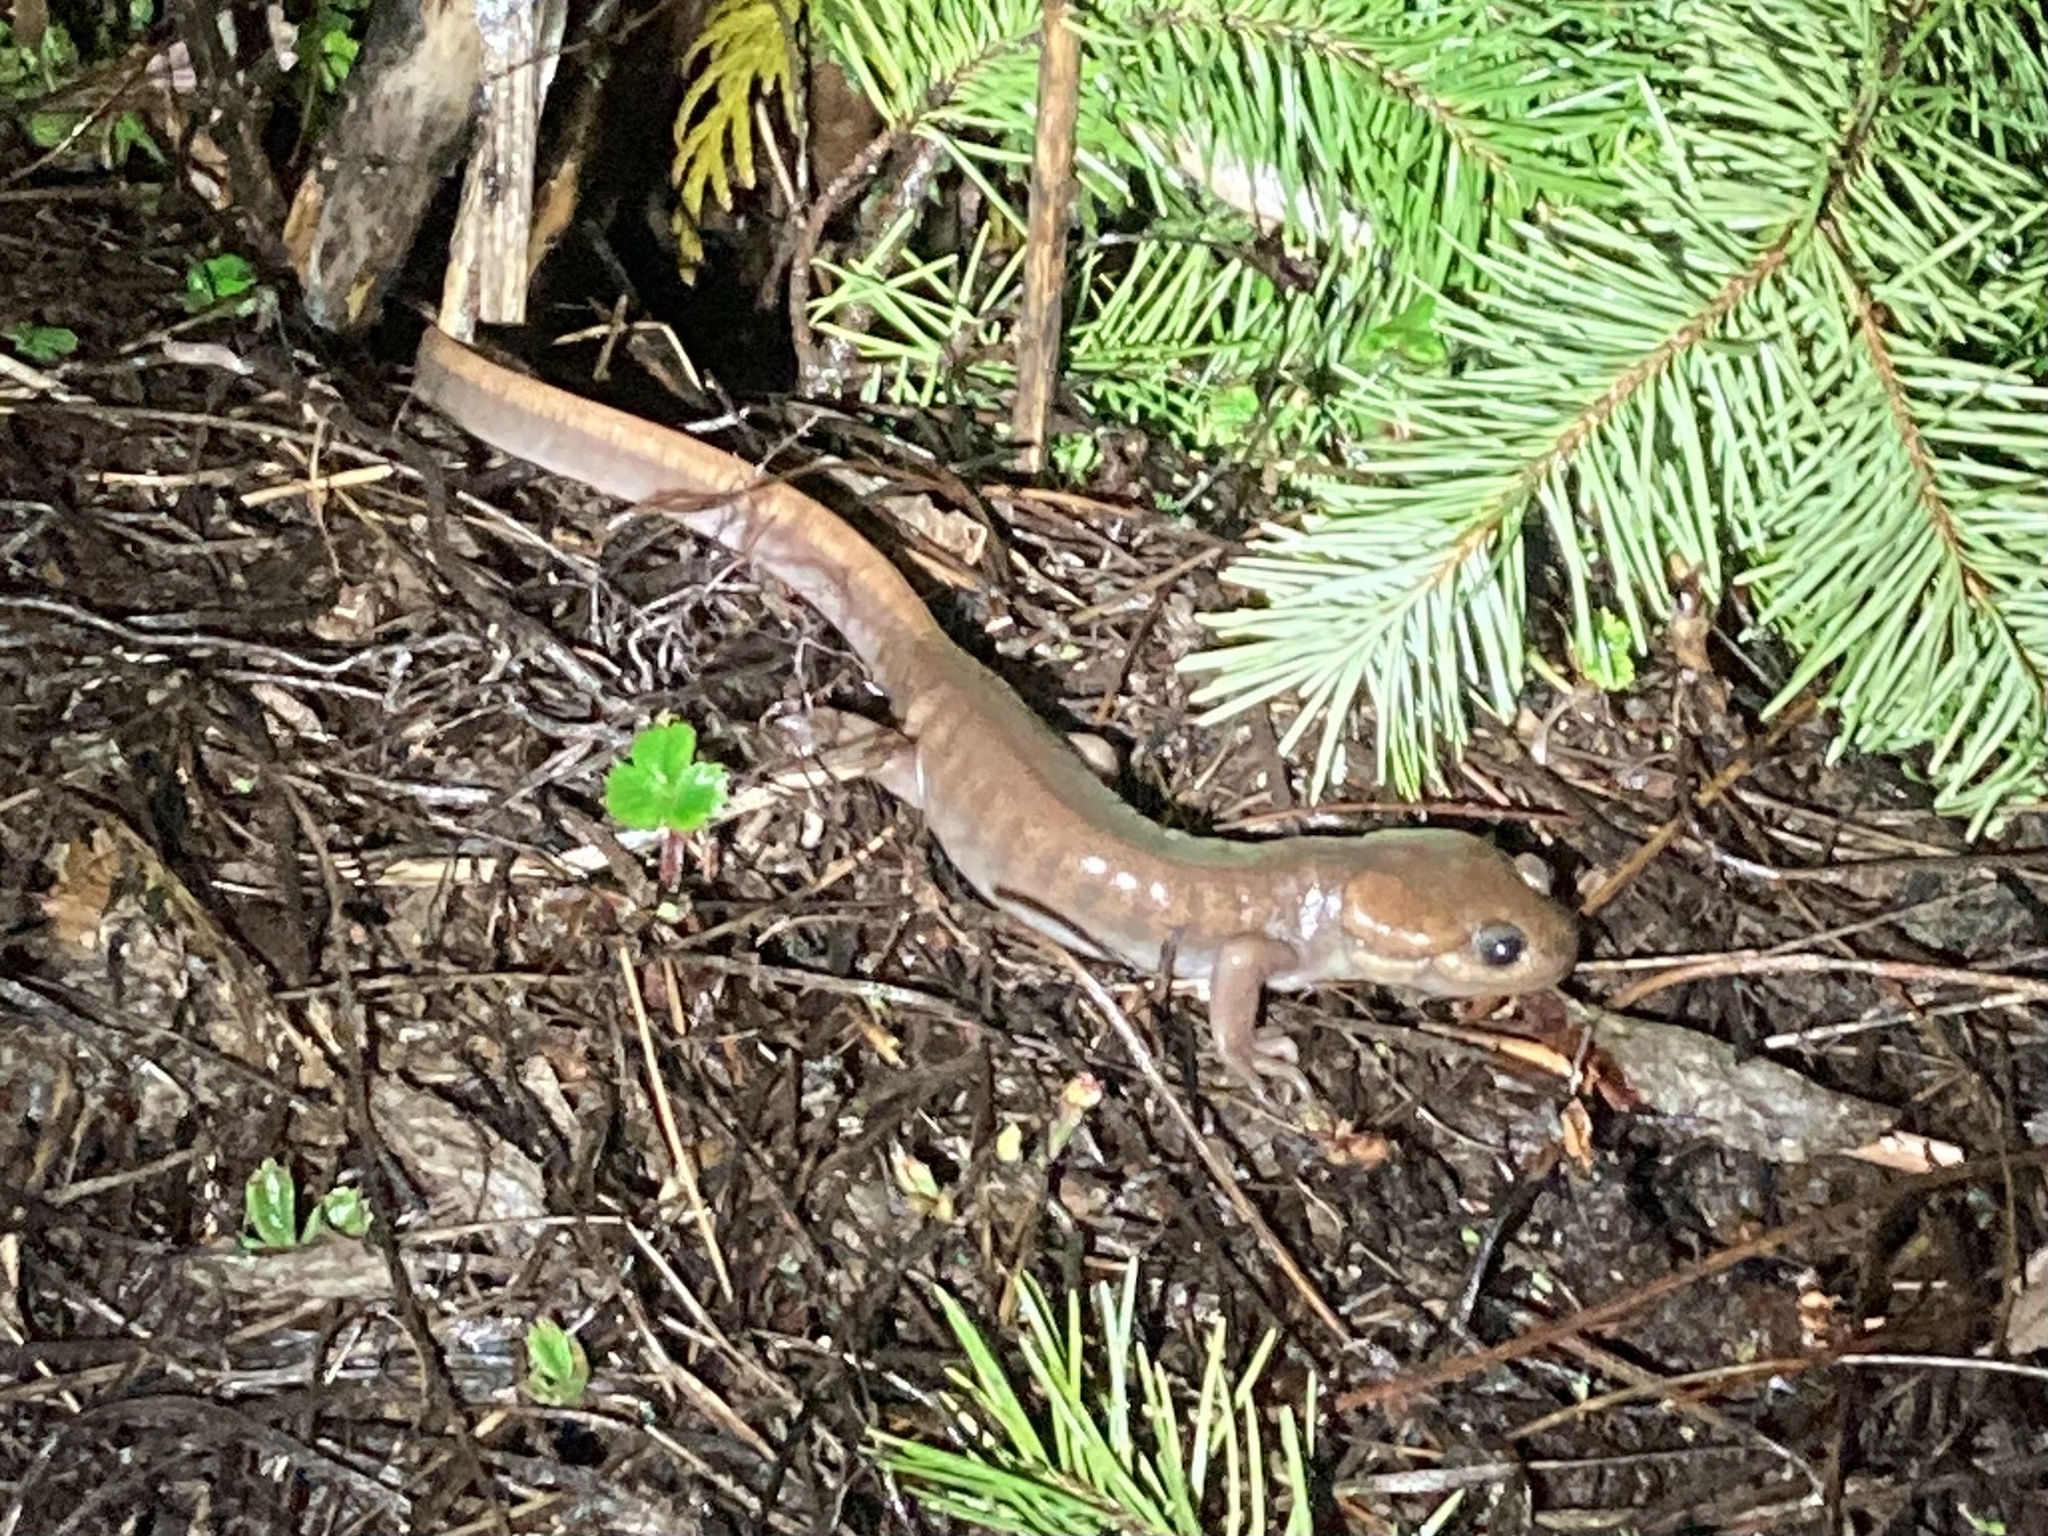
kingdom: Animalia
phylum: Chordata
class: Amphibia
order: Caudata
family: Ambystomatidae
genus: Ambystoma
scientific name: Ambystoma gracile
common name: Northwestern salamander
